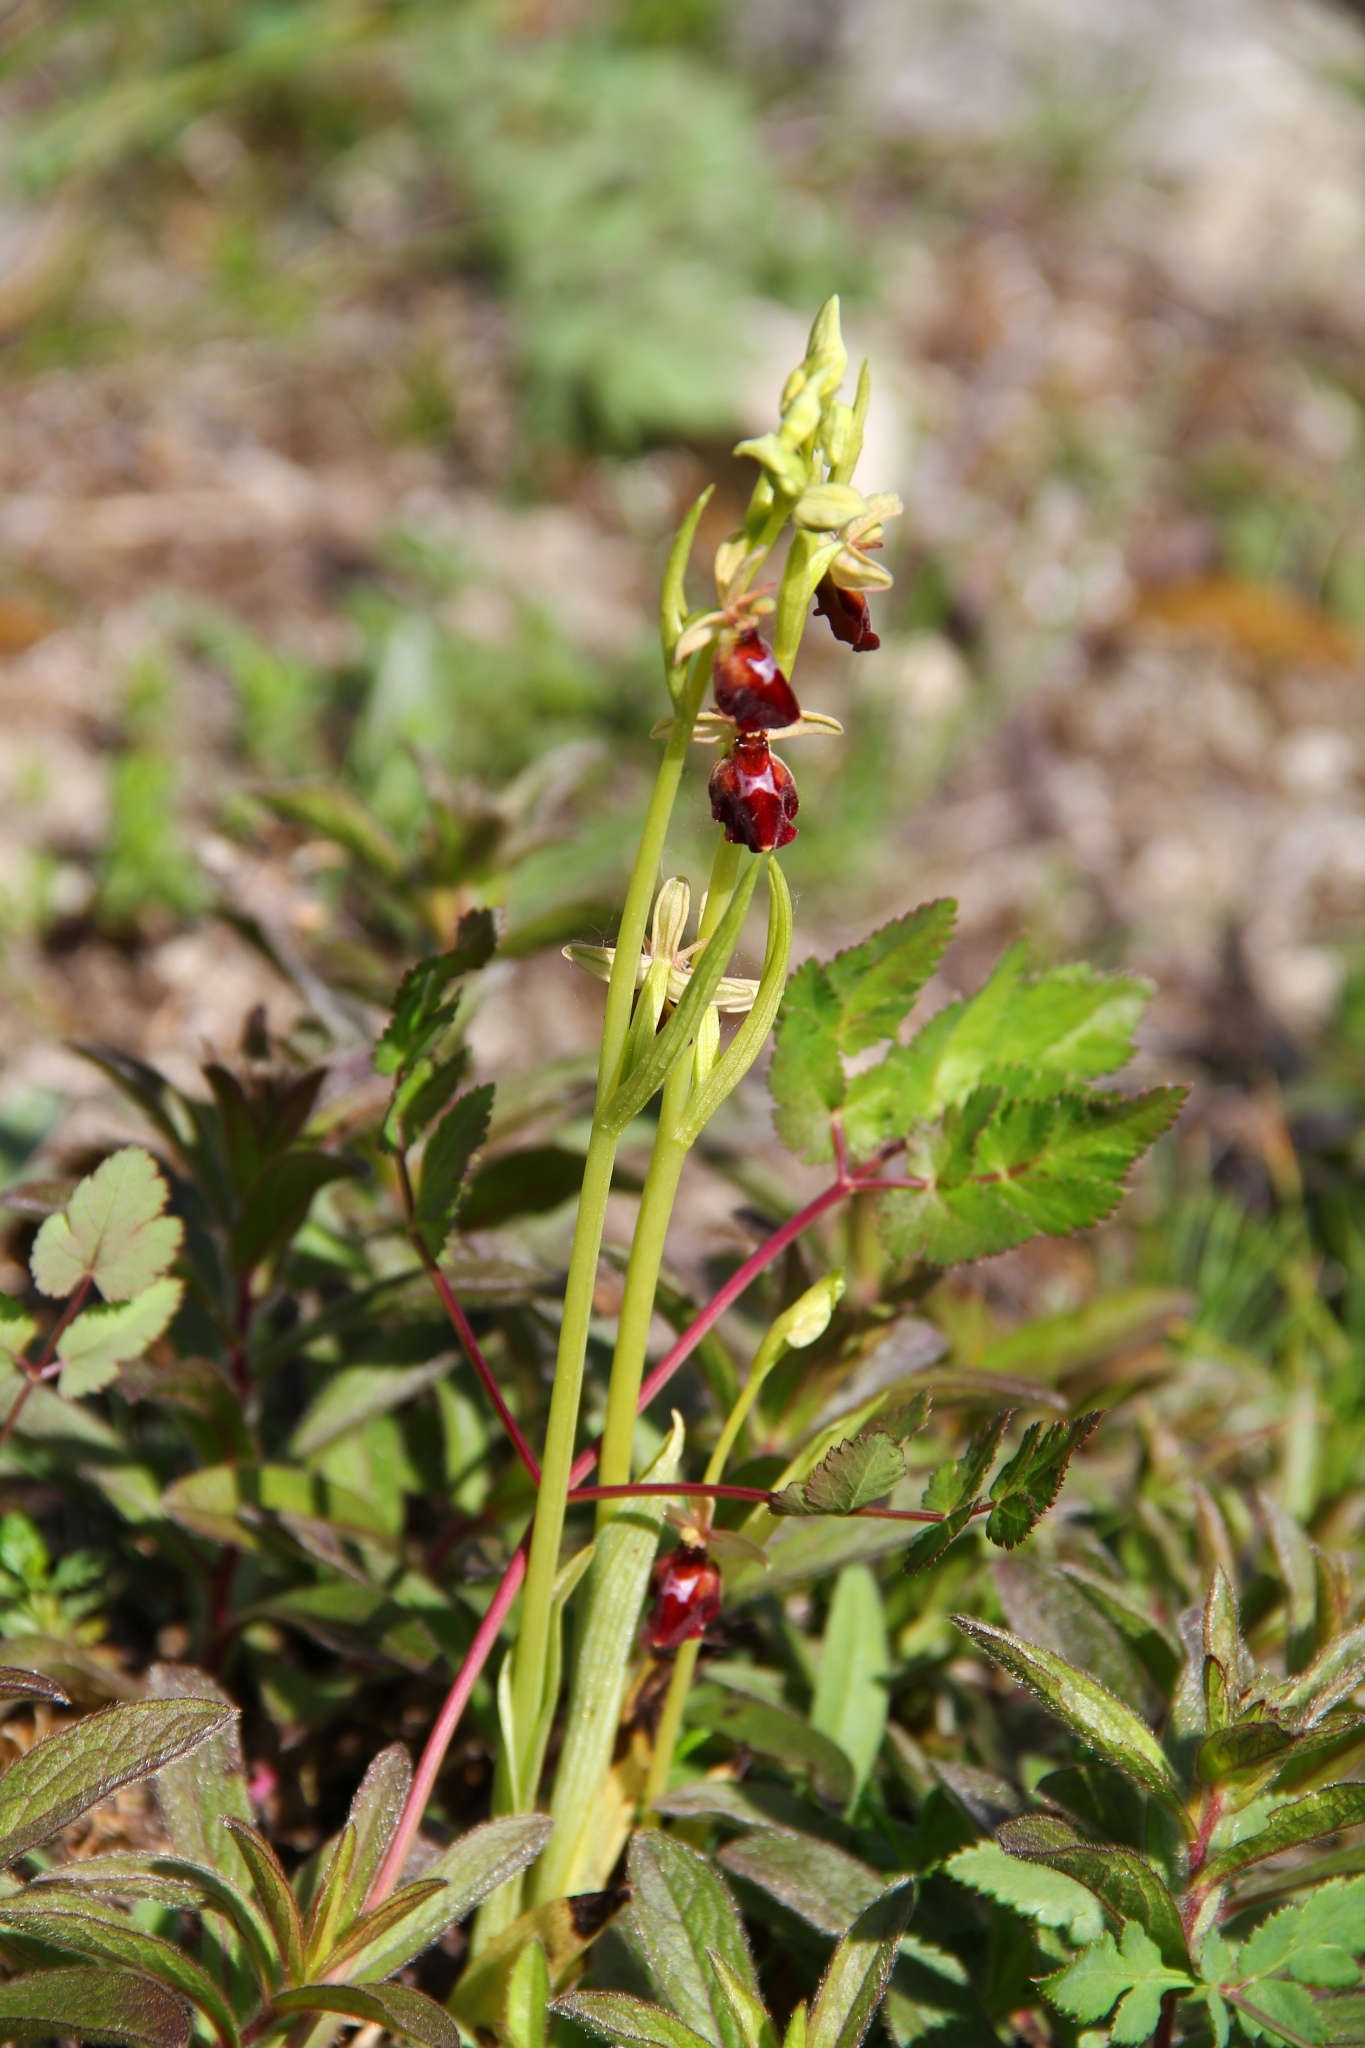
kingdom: Plantae
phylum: Tracheophyta
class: Liliopsida
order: Asparagales
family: Orchidaceae
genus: Ophrys
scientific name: Ophrys devenensis
